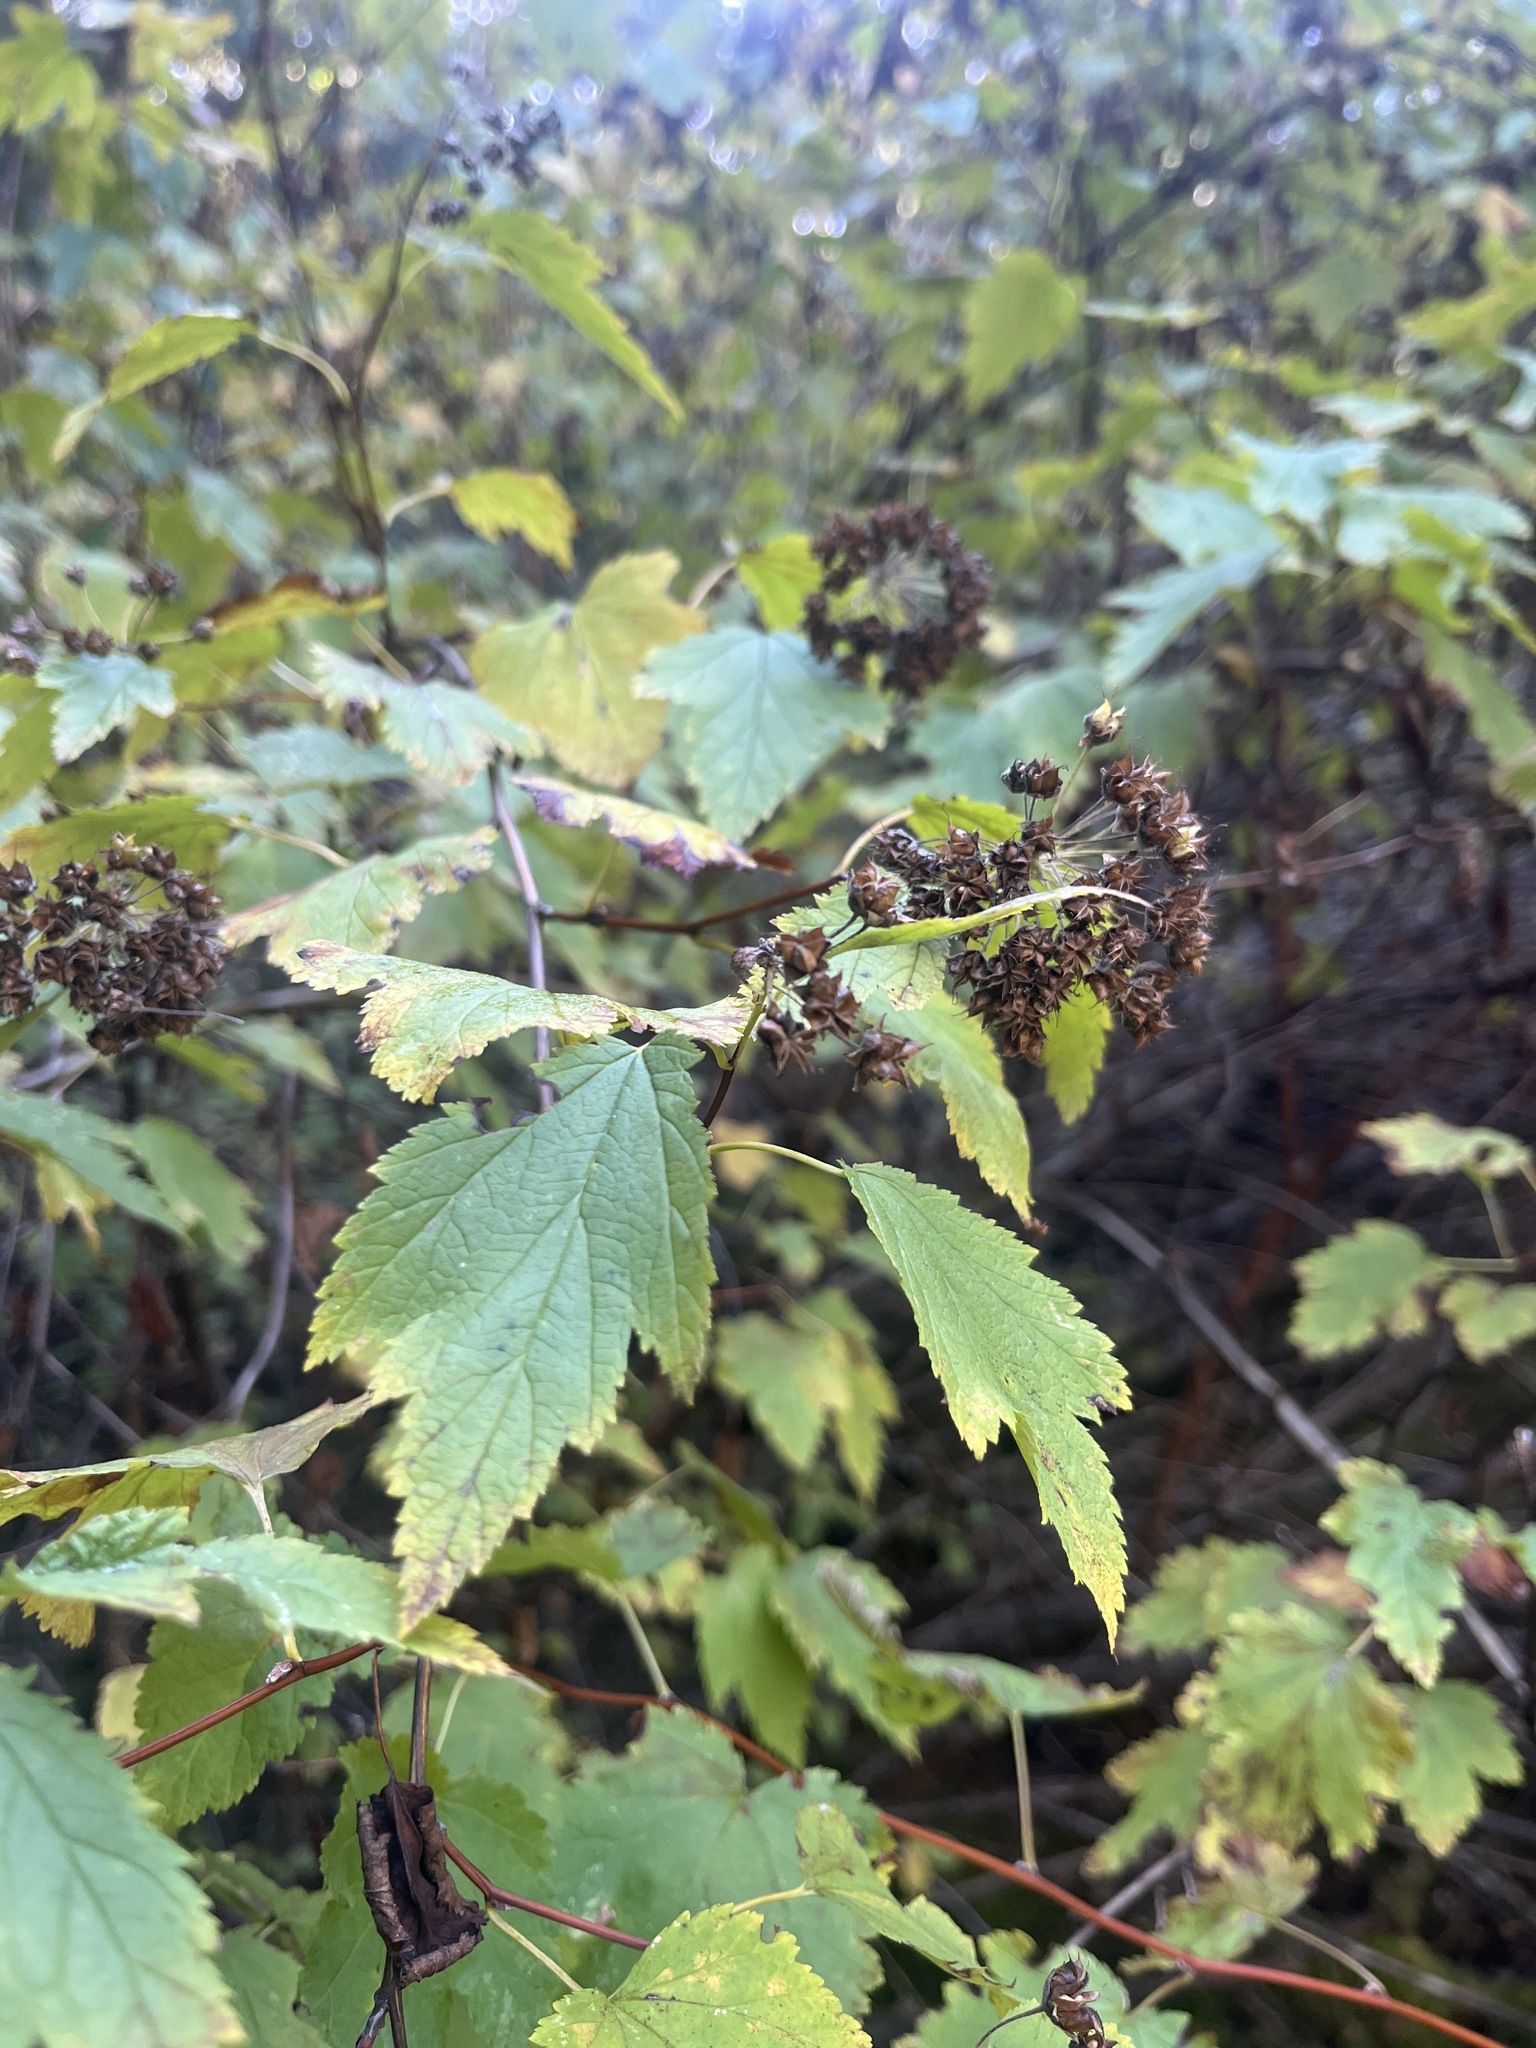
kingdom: Plantae
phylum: Tracheophyta
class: Magnoliopsida
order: Rosales
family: Rosaceae
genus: Physocarpus
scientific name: Physocarpus capitatus
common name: Pacific ninebark
